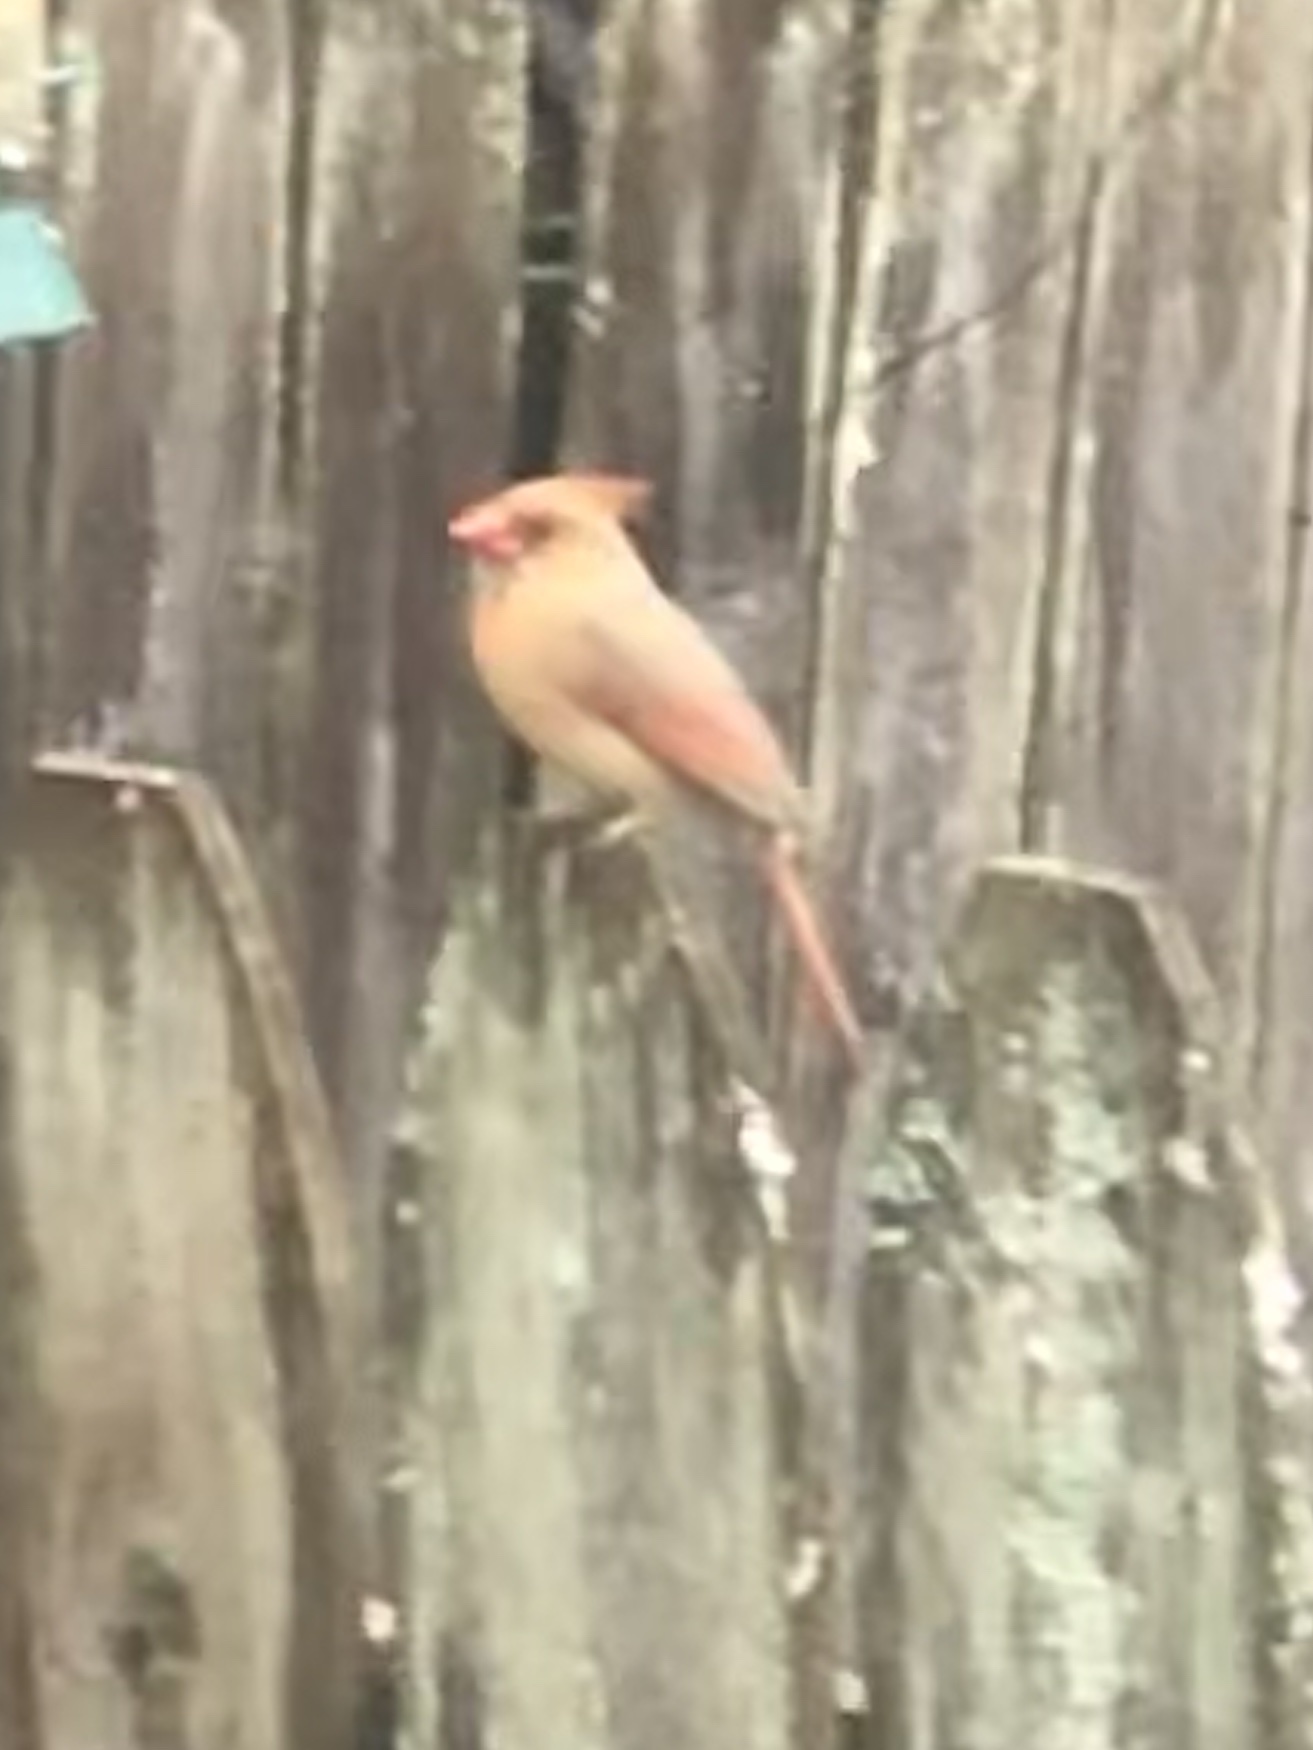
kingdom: Animalia
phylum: Chordata
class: Aves
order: Passeriformes
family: Cardinalidae
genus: Cardinalis
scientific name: Cardinalis cardinalis
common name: Northern cardinal
